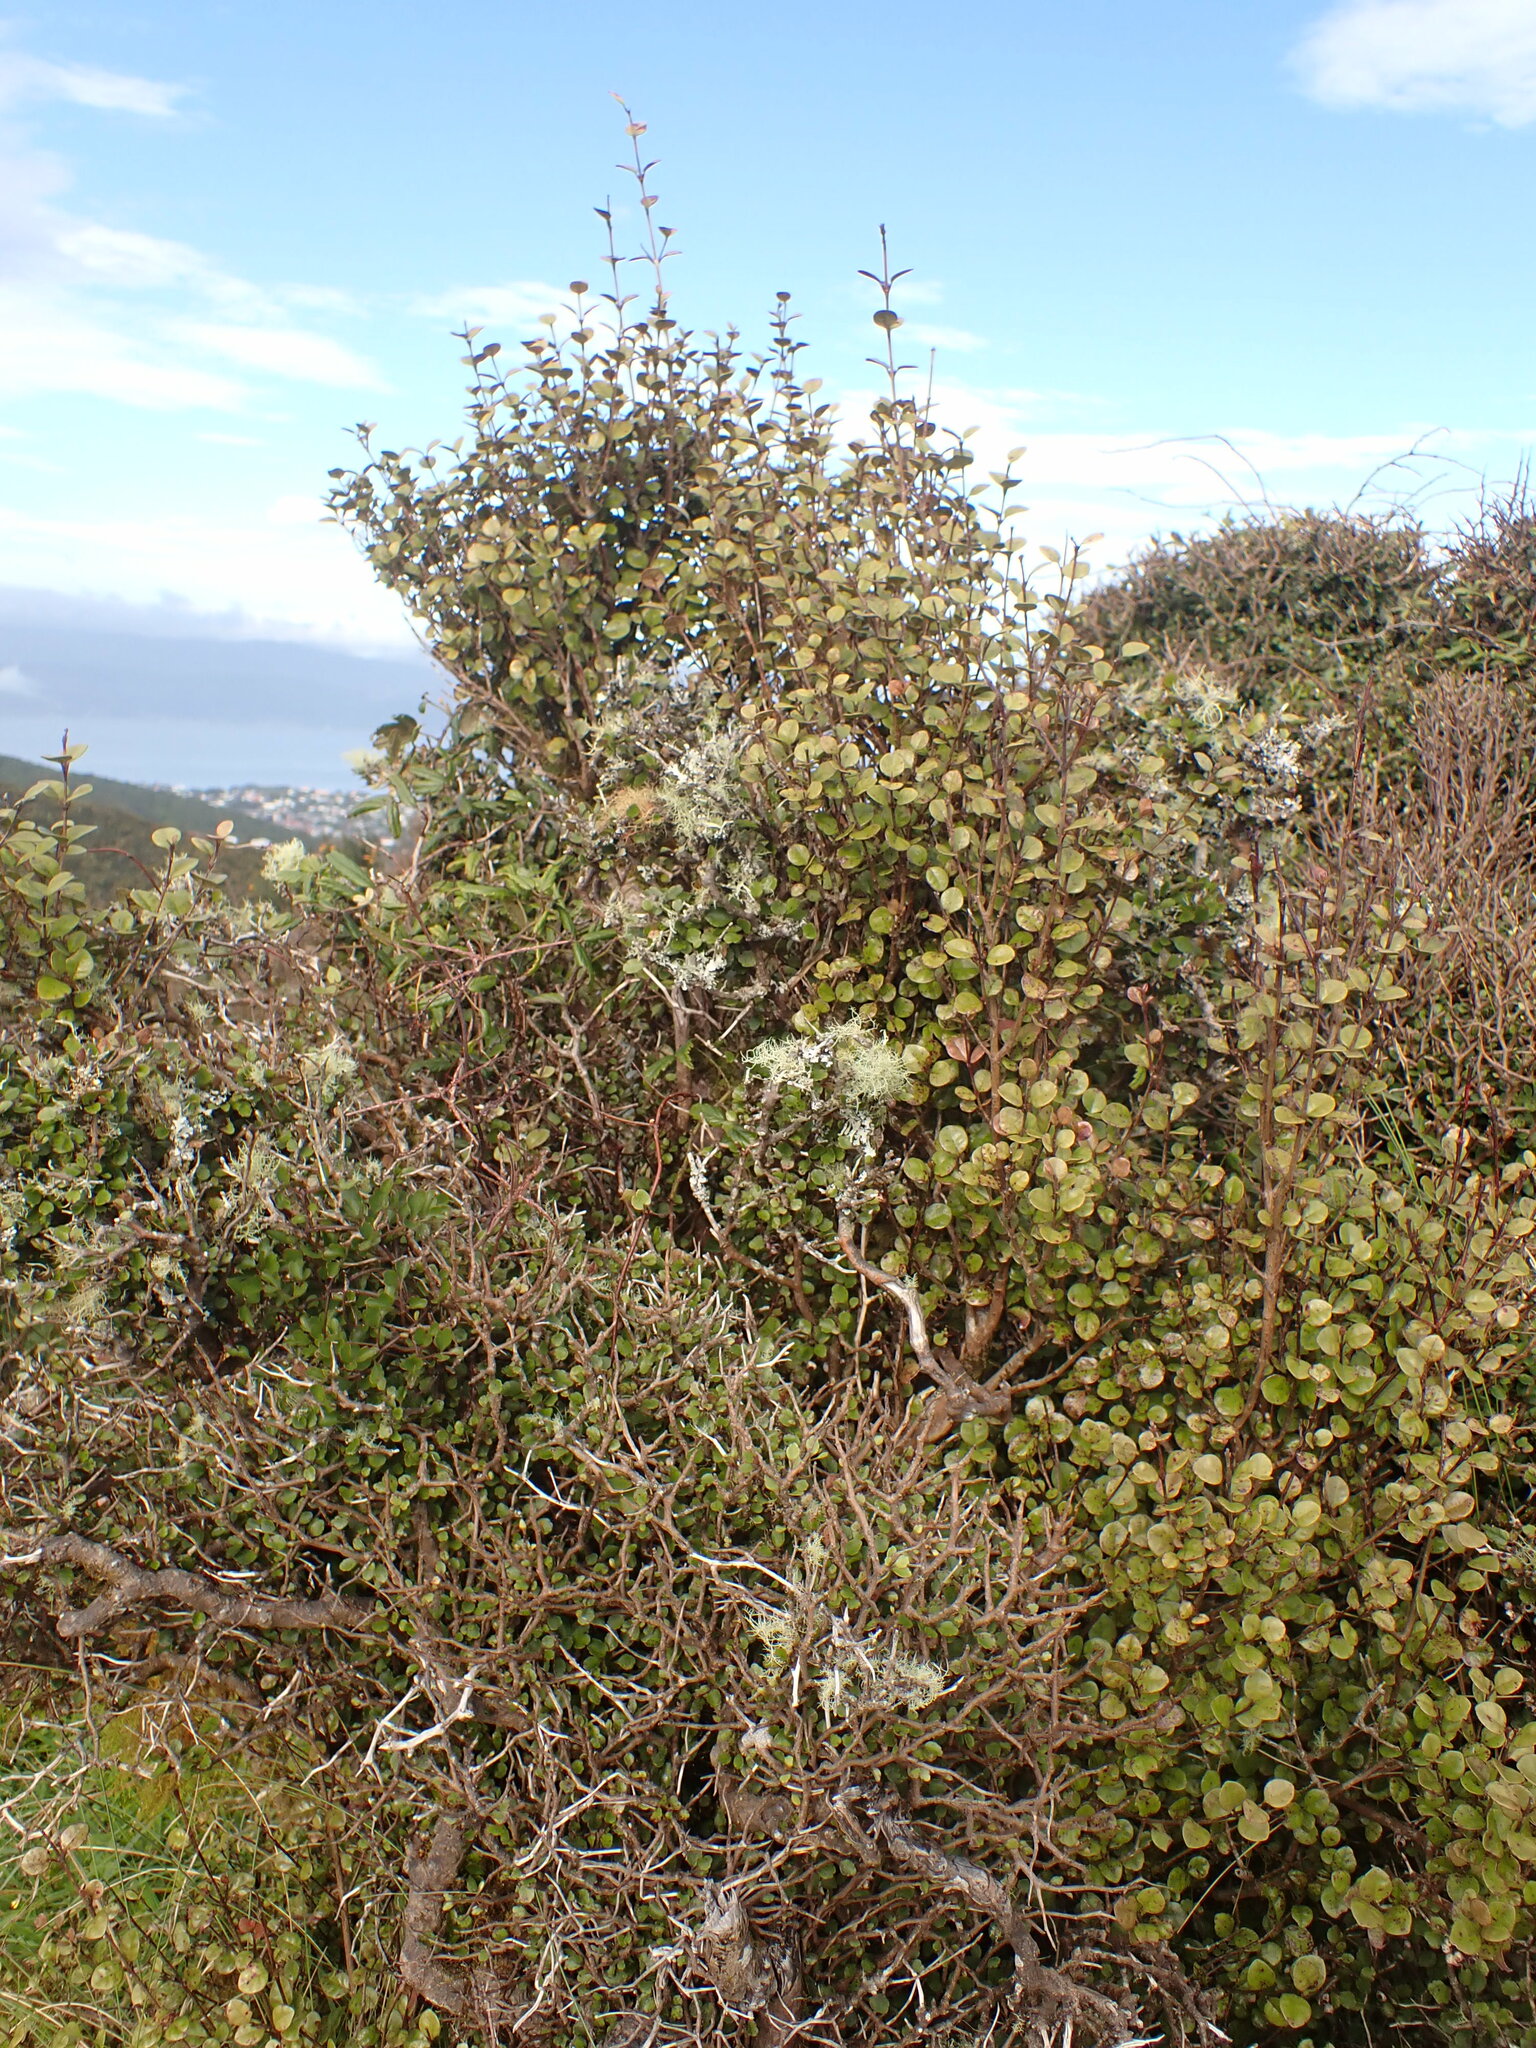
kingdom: Plantae
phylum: Tracheophyta
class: Magnoliopsida
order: Myrtales
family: Myrtaceae
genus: Lophomyrtus
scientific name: Lophomyrtus ralphii
